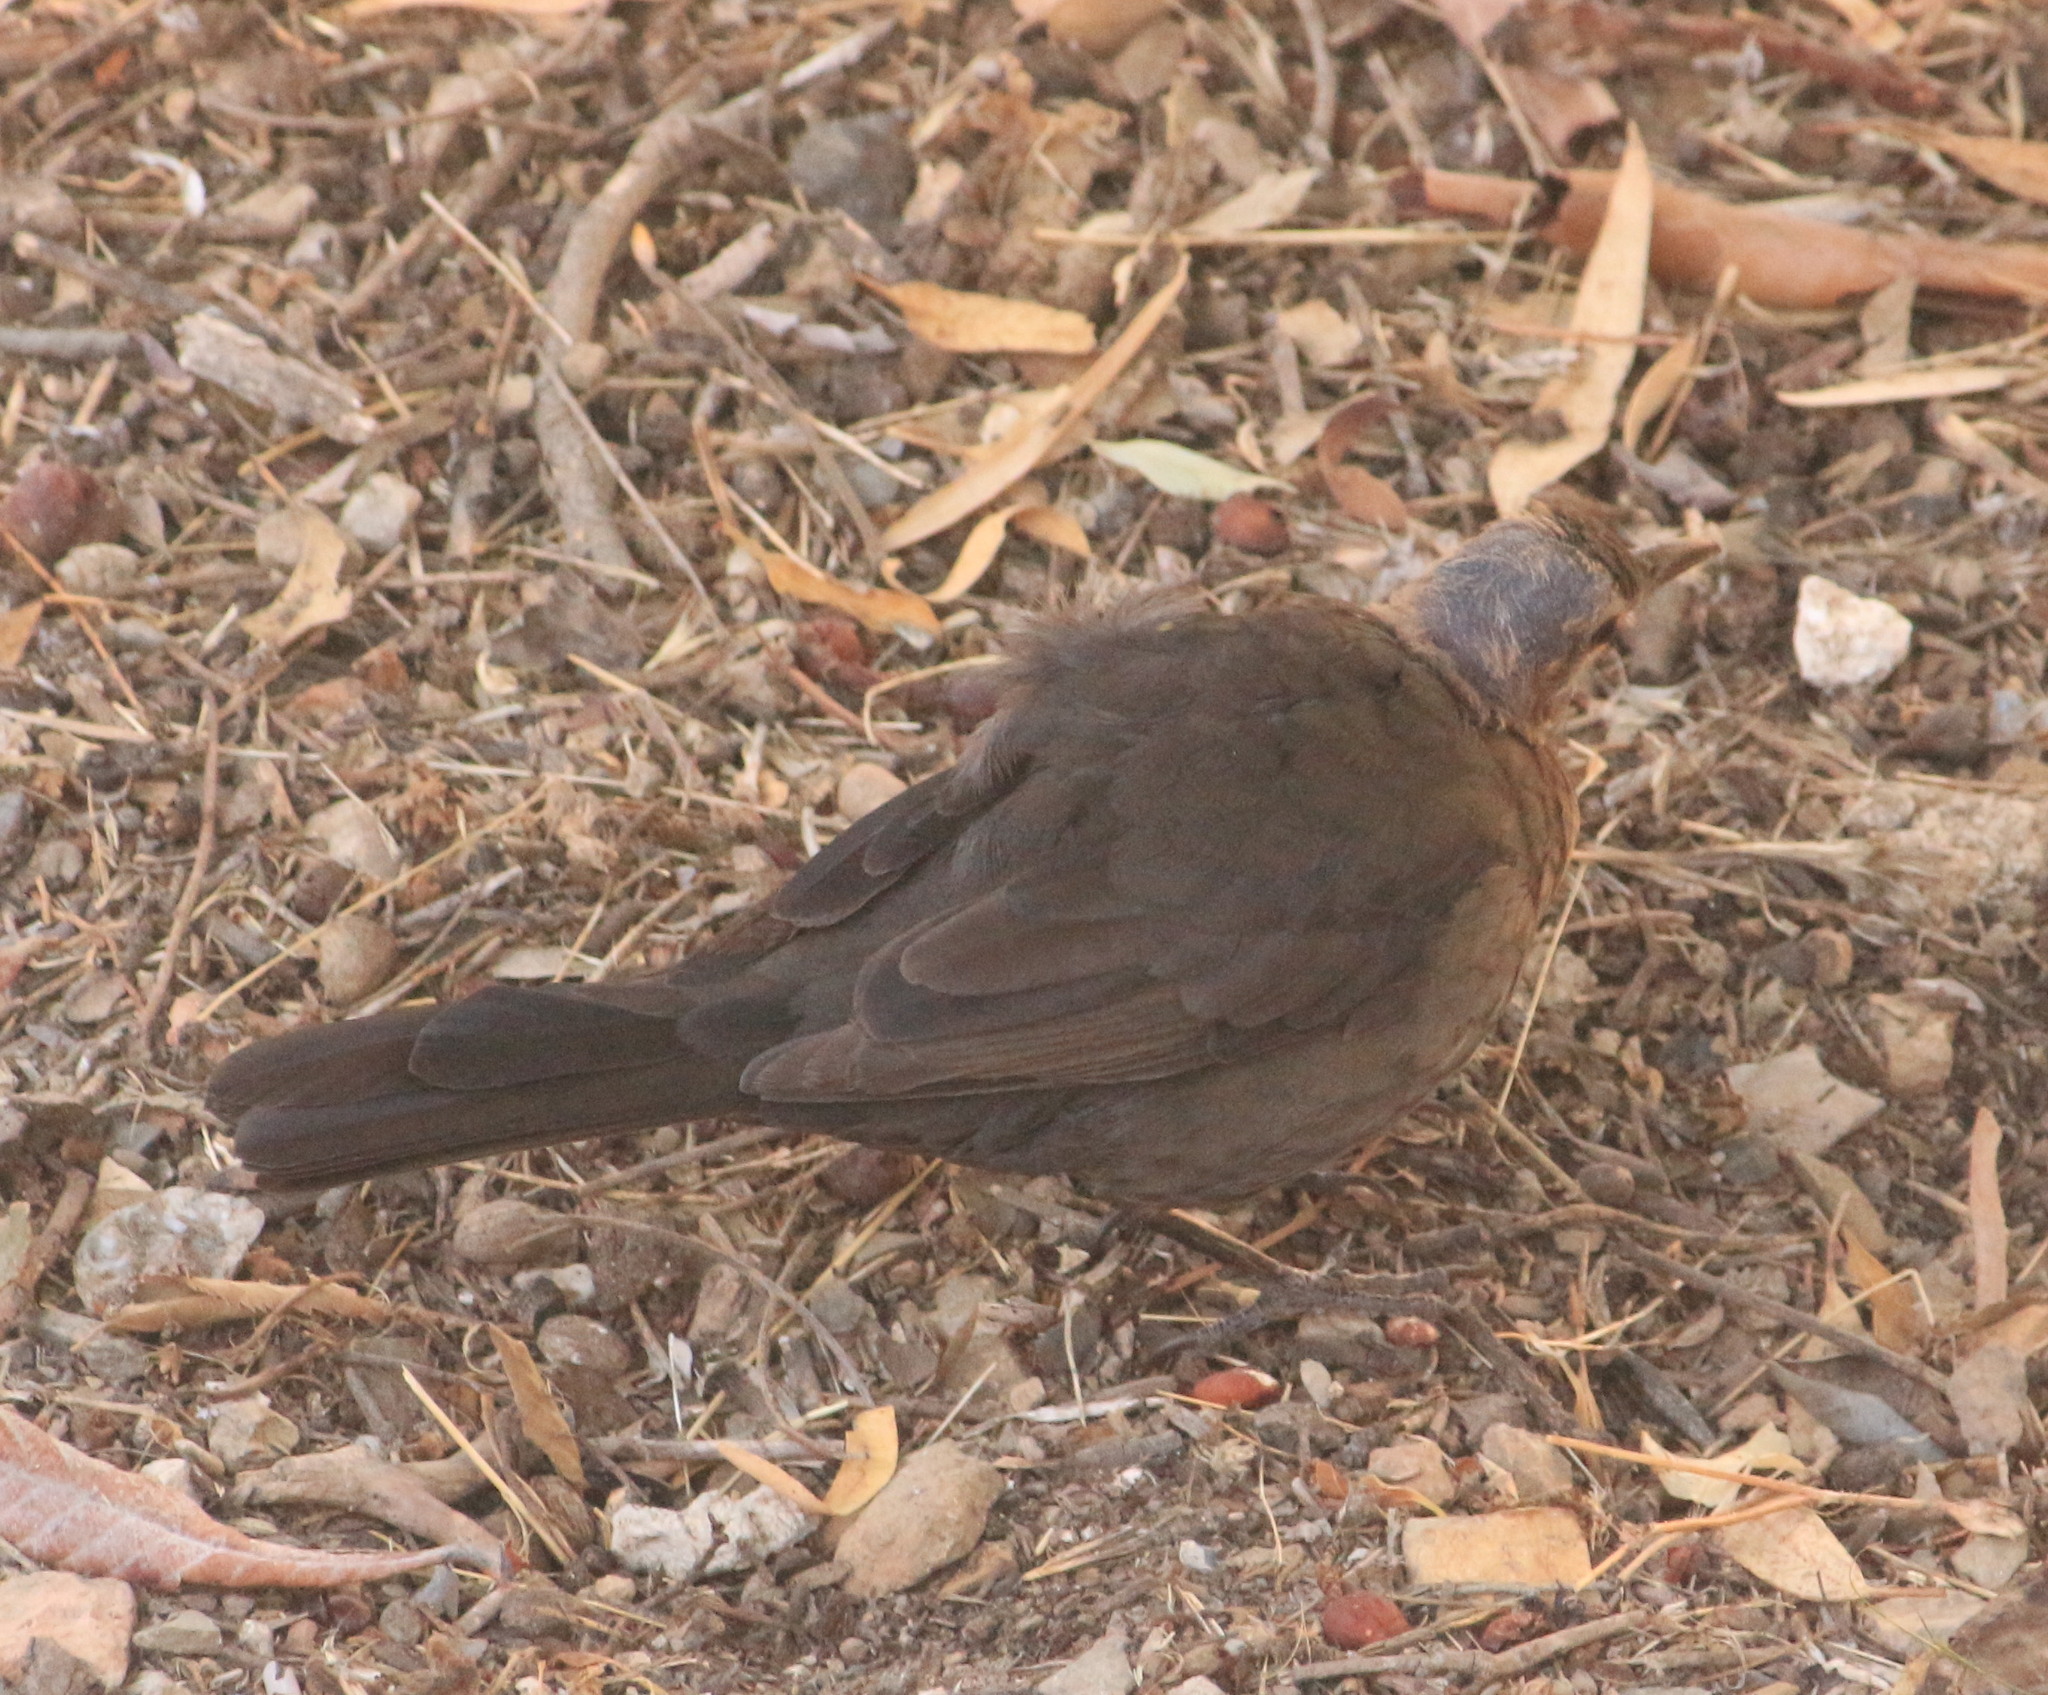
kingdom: Animalia
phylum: Chordata
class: Aves
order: Passeriformes
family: Turdidae
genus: Turdus
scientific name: Turdus merula
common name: Common blackbird
